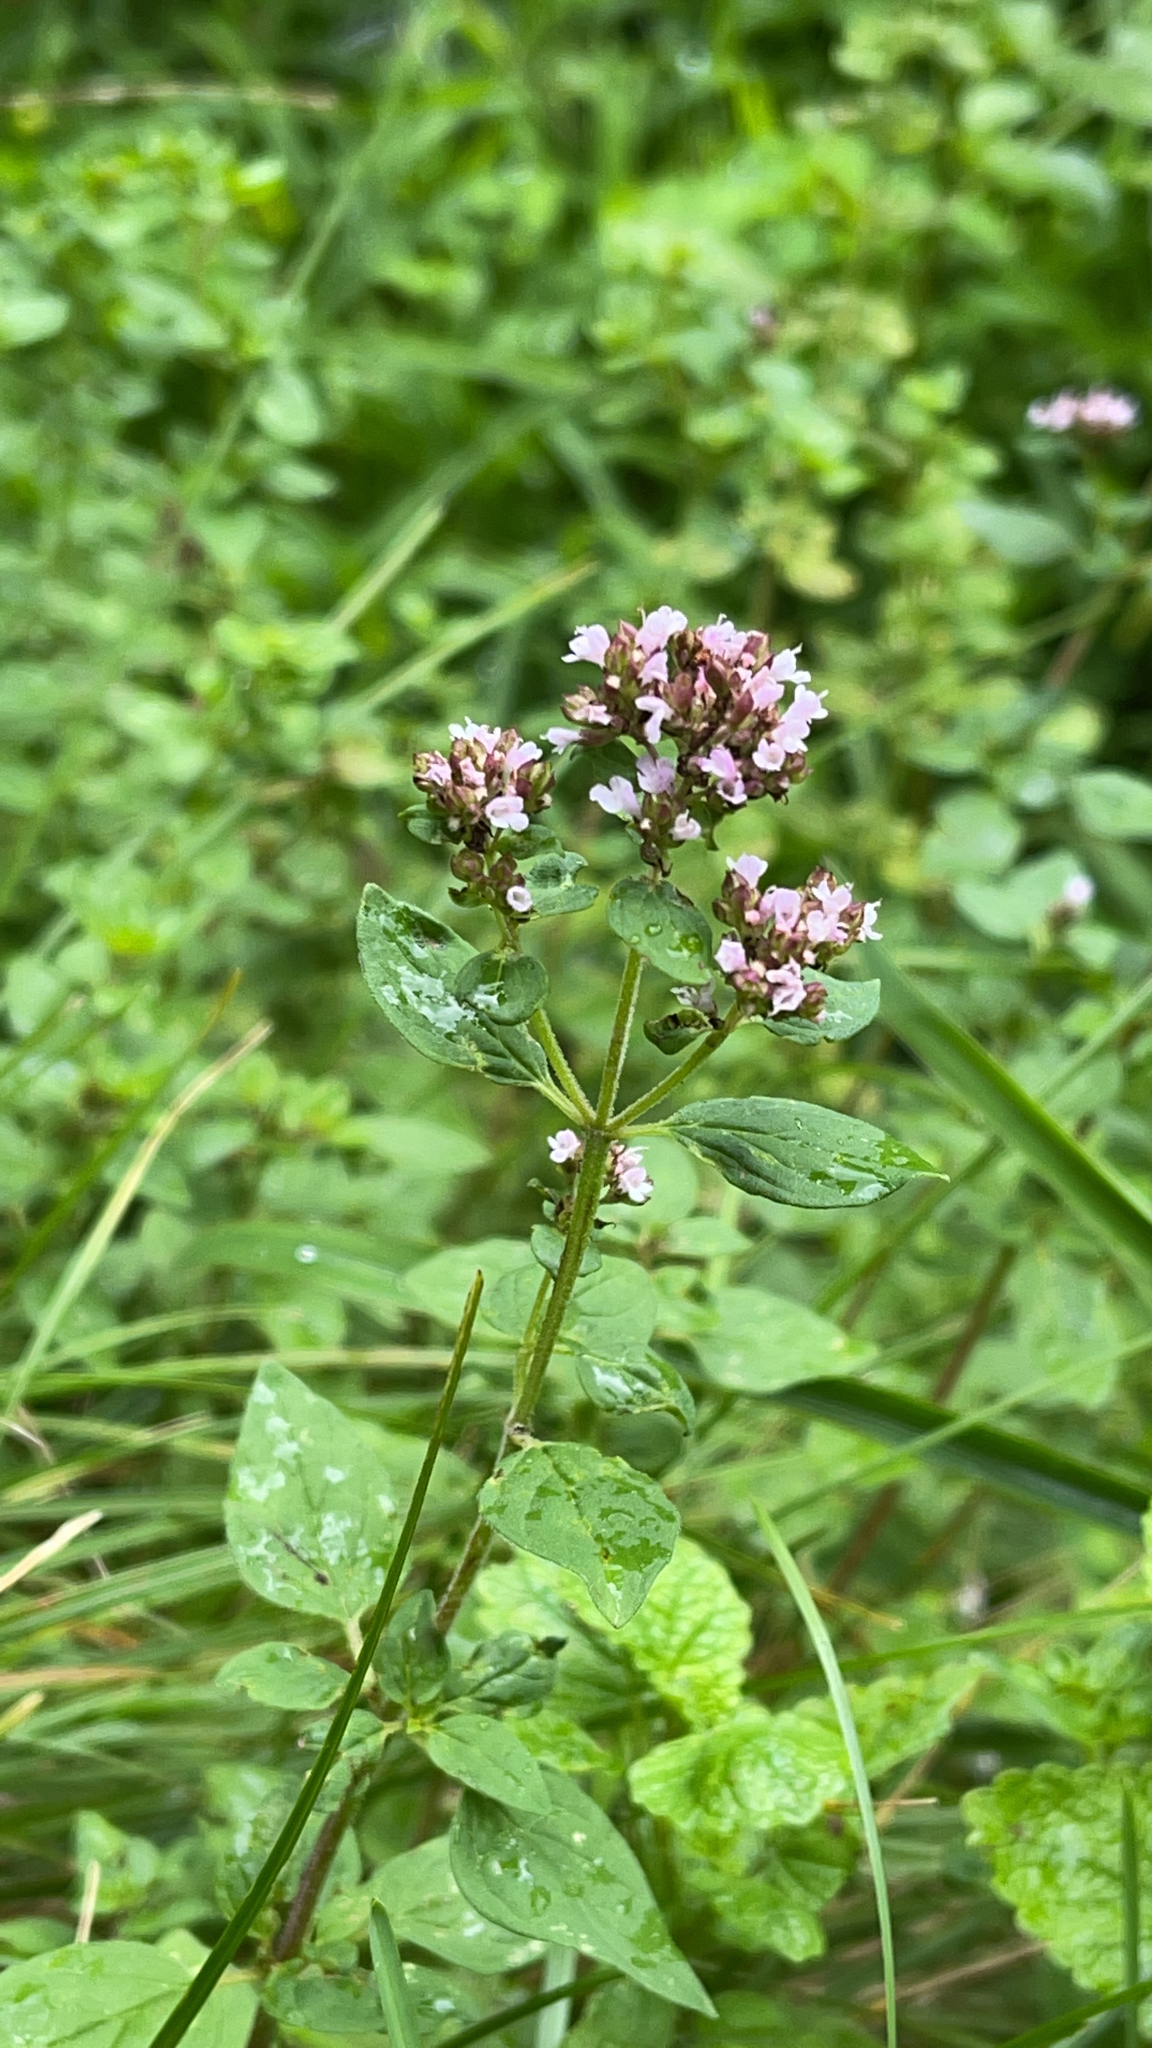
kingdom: Plantae
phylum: Tracheophyta
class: Magnoliopsida
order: Lamiales
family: Lamiaceae
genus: Origanum
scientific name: Origanum vulgare
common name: Wild marjoram
